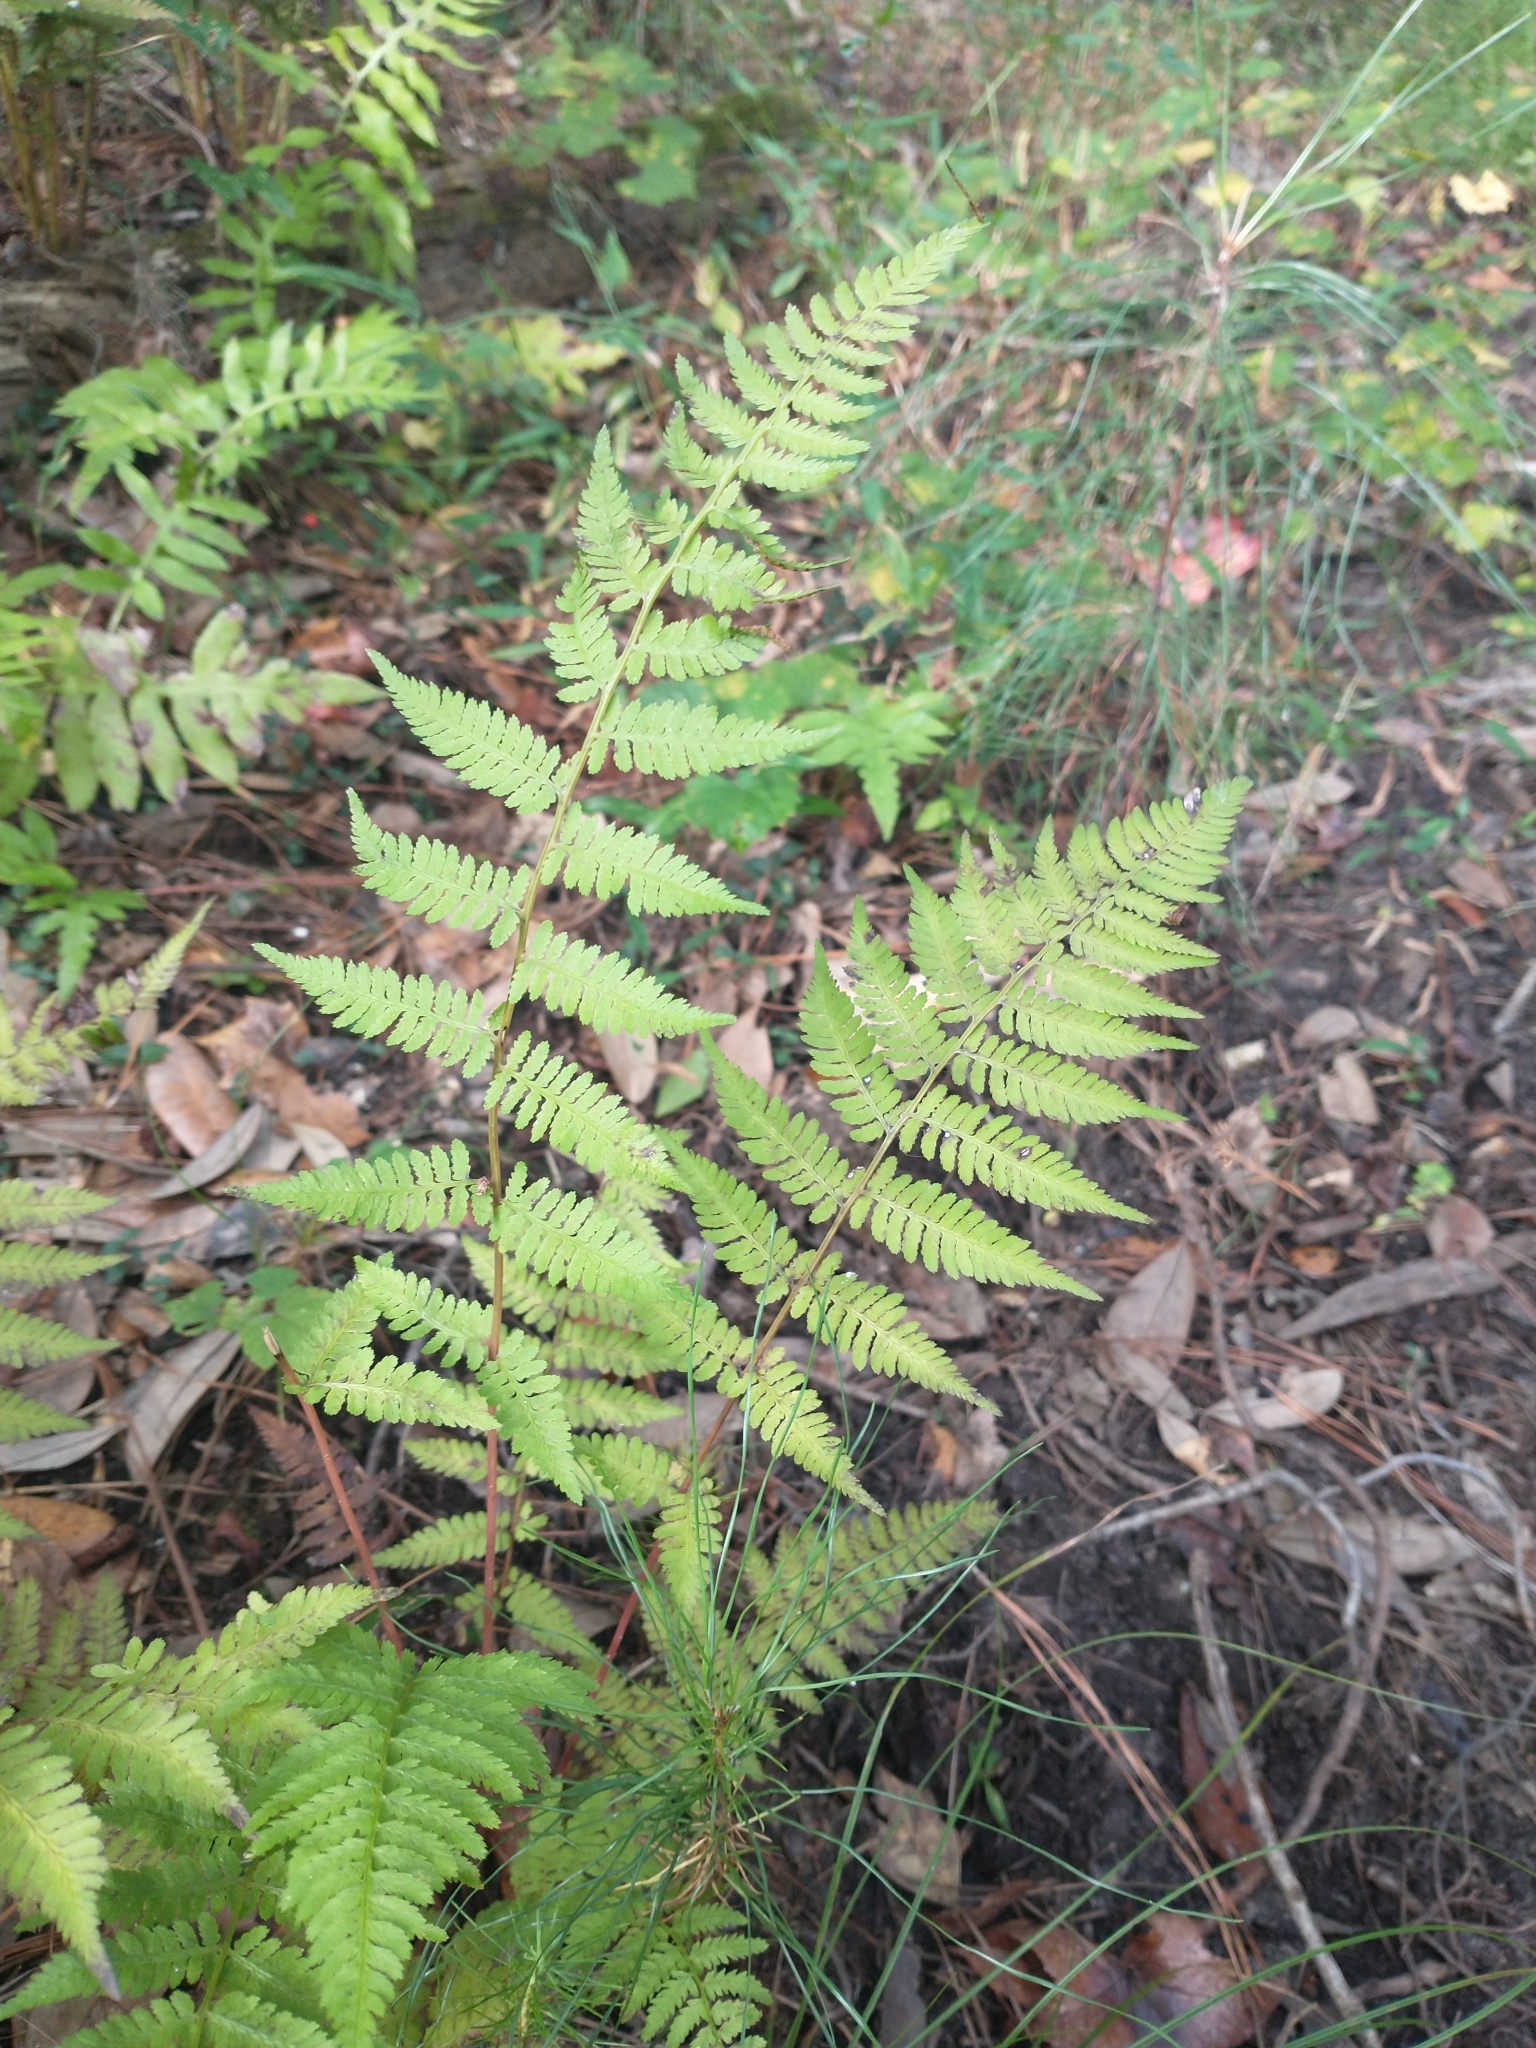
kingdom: Plantae
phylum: Tracheophyta
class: Polypodiopsida
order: Polypodiales
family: Athyriaceae
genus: Athyrium
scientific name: Athyrium asplenioides
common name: Southern lady fern
